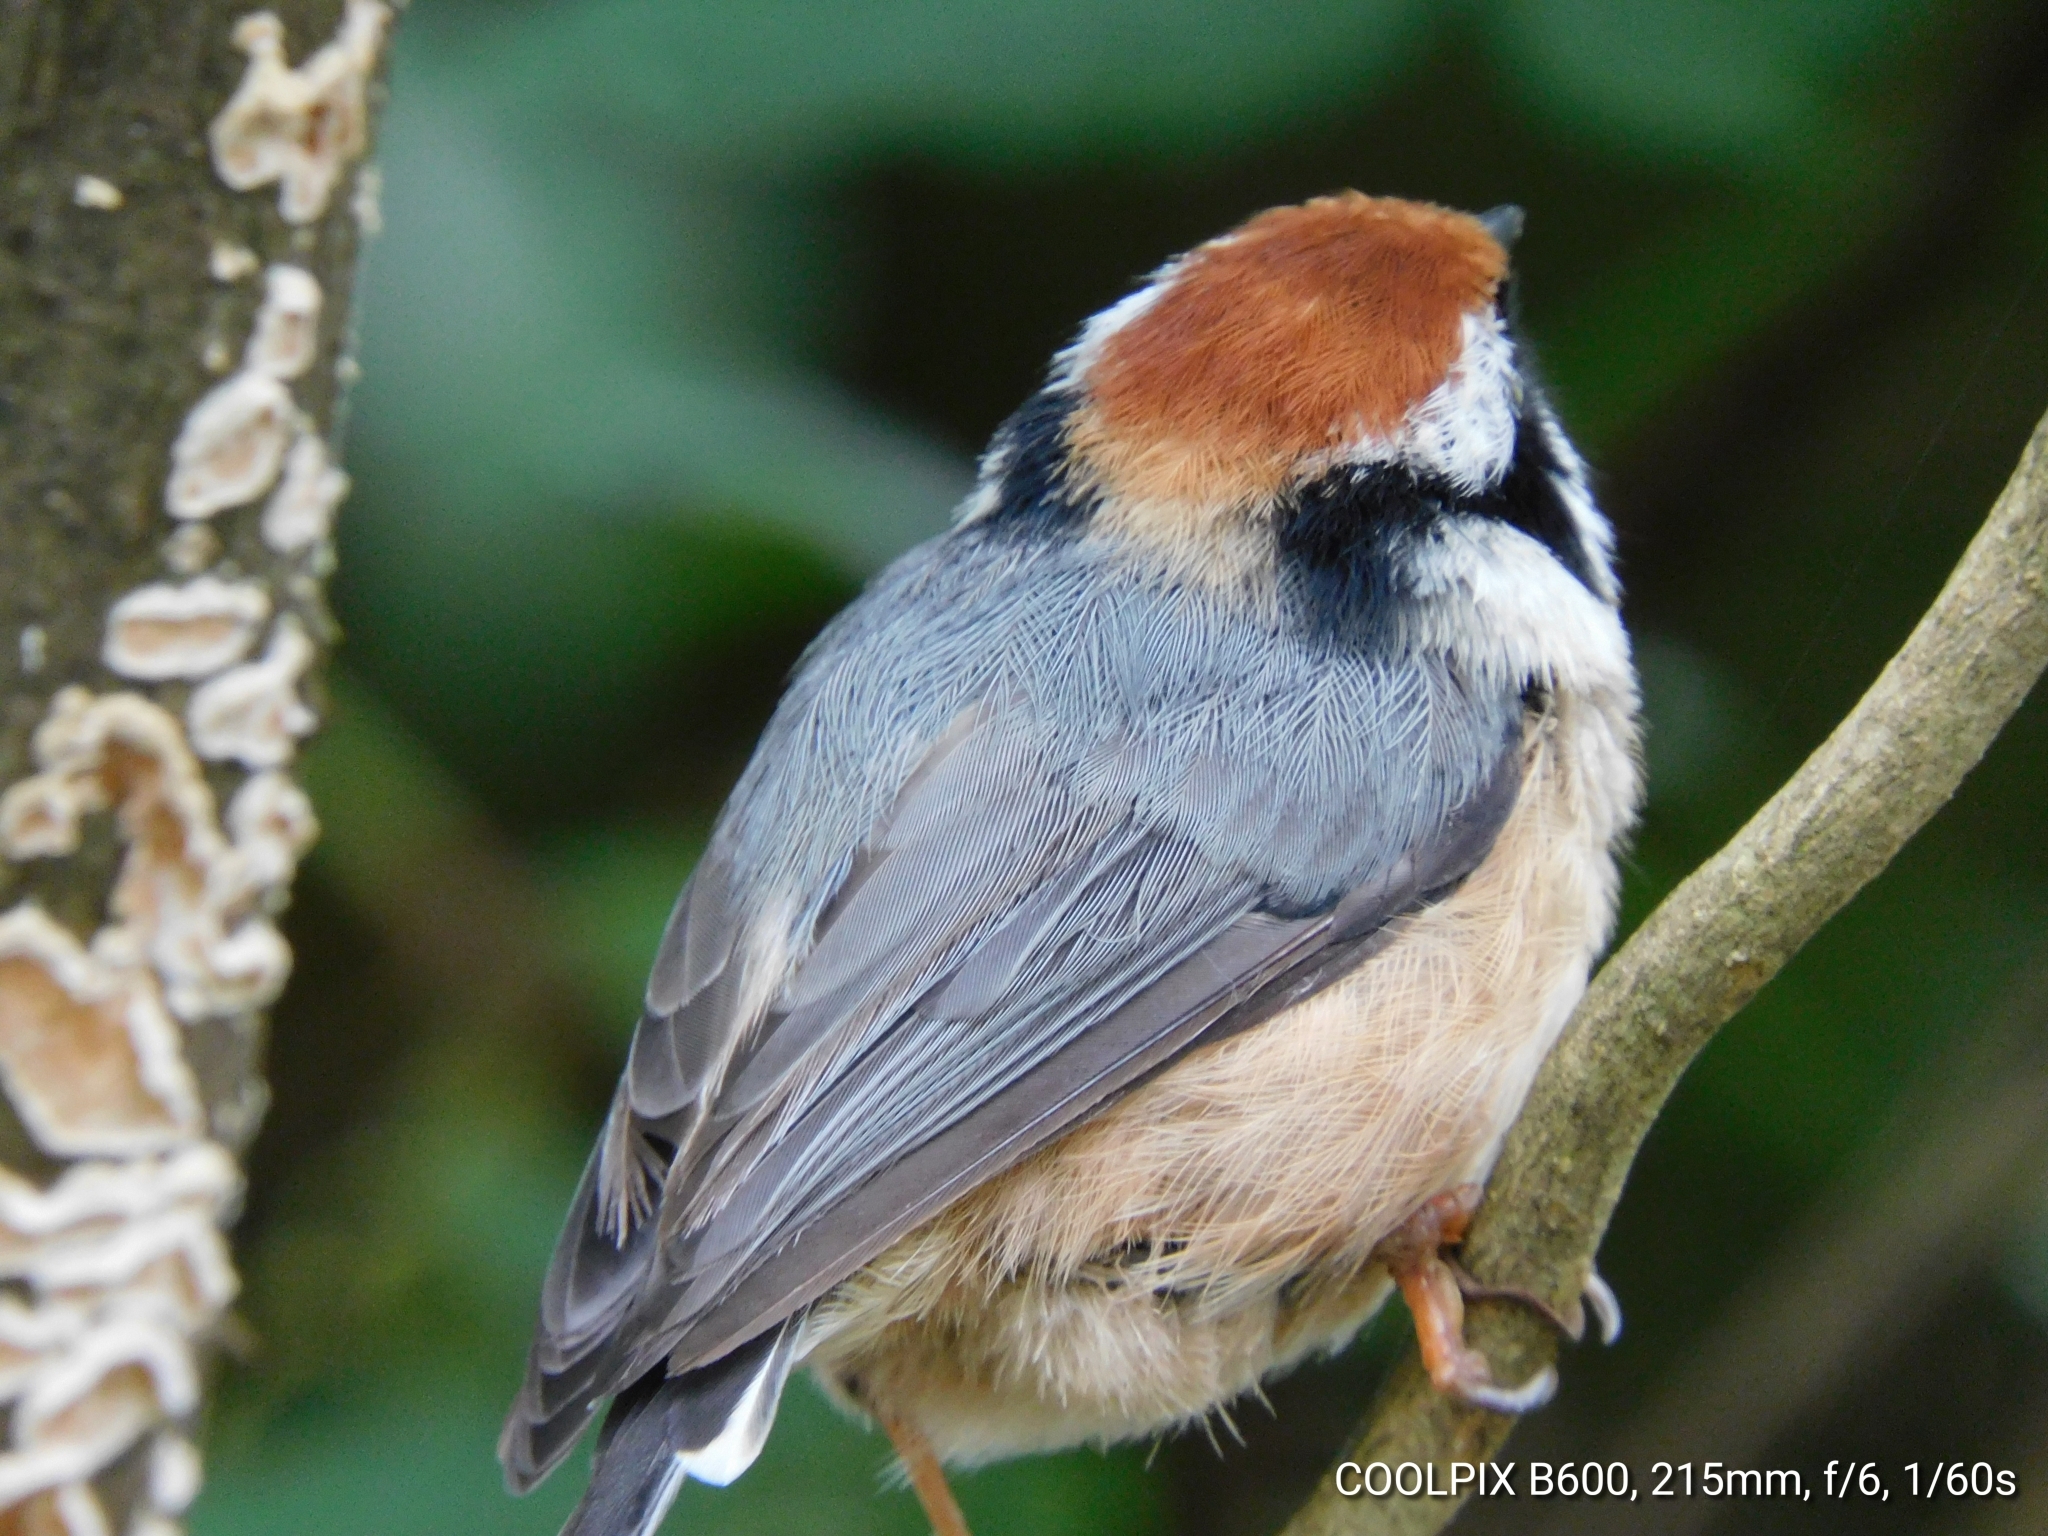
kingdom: Animalia
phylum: Chordata
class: Aves
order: Passeriformes
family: Aegithalidae
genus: Aegithalos
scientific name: Aegithalos concinnus
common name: Black-throated bushtit
